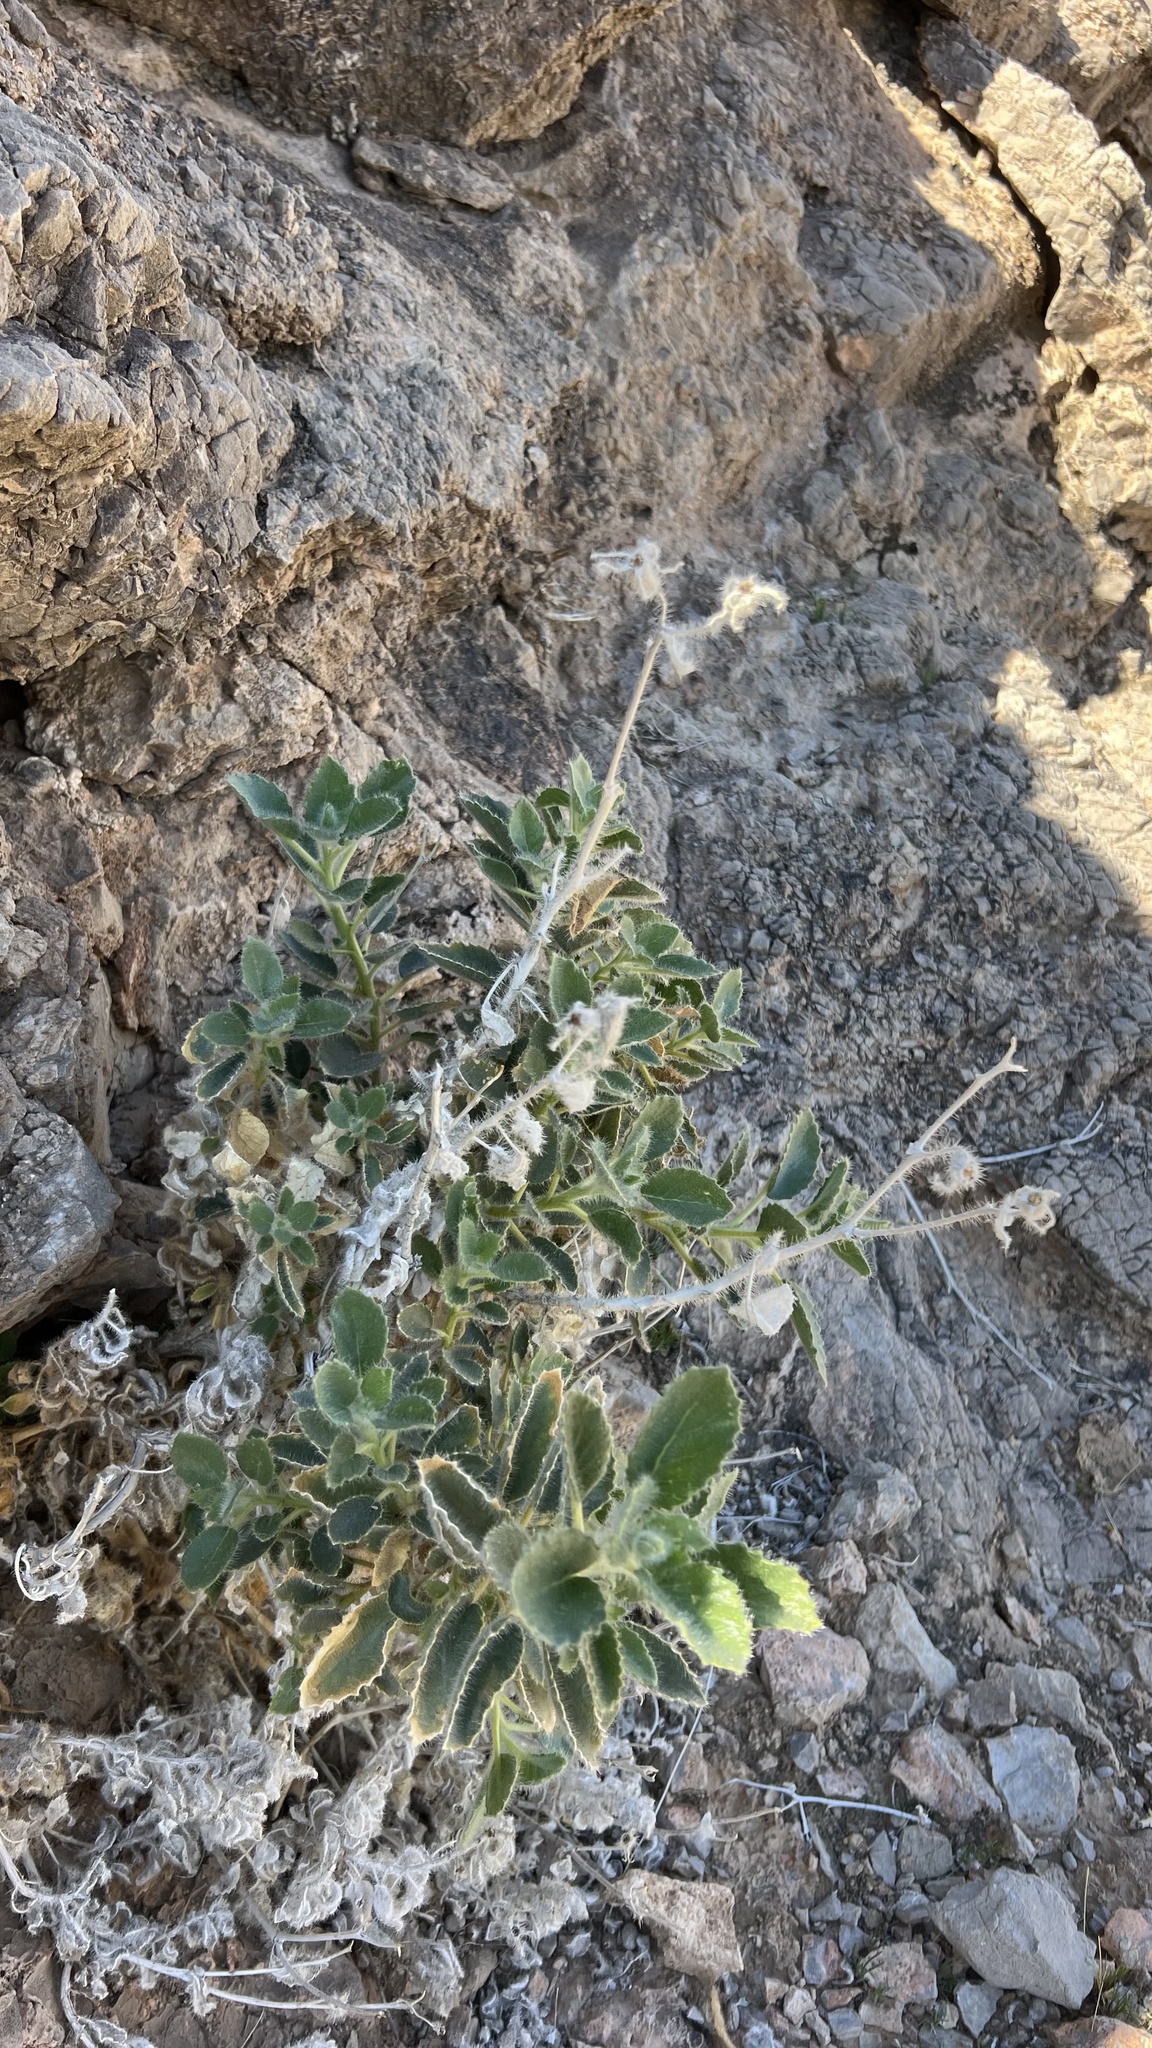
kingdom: Plantae
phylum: Tracheophyta
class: Magnoliopsida
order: Cornales
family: Loasaceae
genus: Eucnide
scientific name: Eucnide urens
